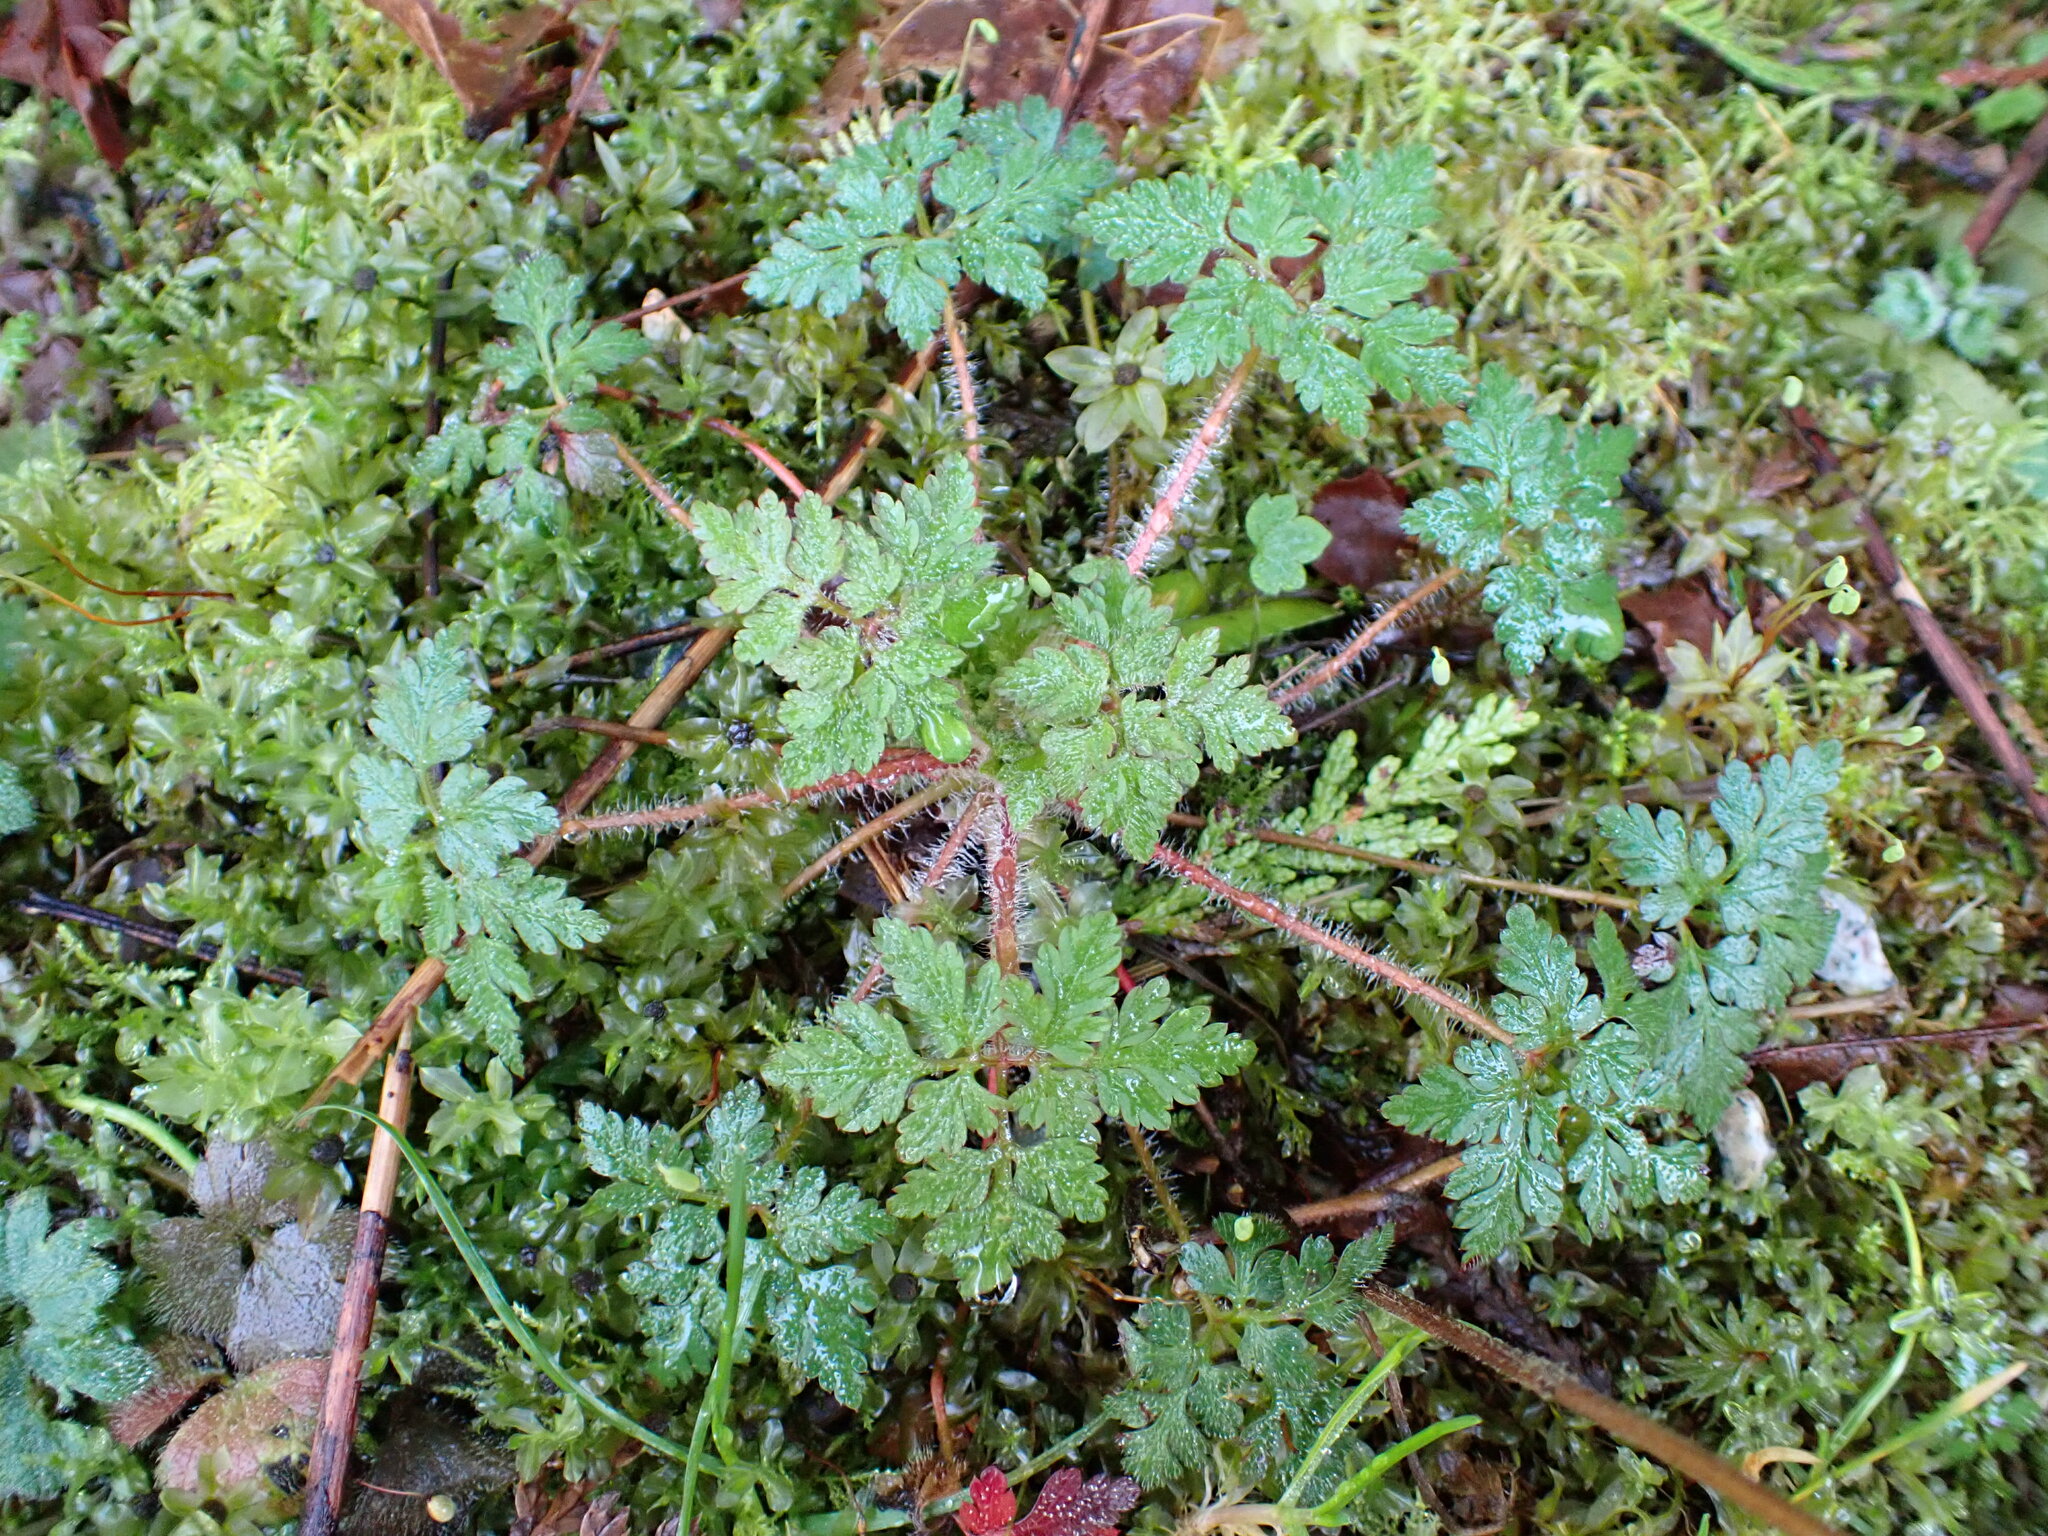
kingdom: Plantae
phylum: Tracheophyta
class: Magnoliopsida
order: Geraniales
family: Geraniaceae
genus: Geranium
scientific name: Geranium robertianum
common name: Herb-robert
